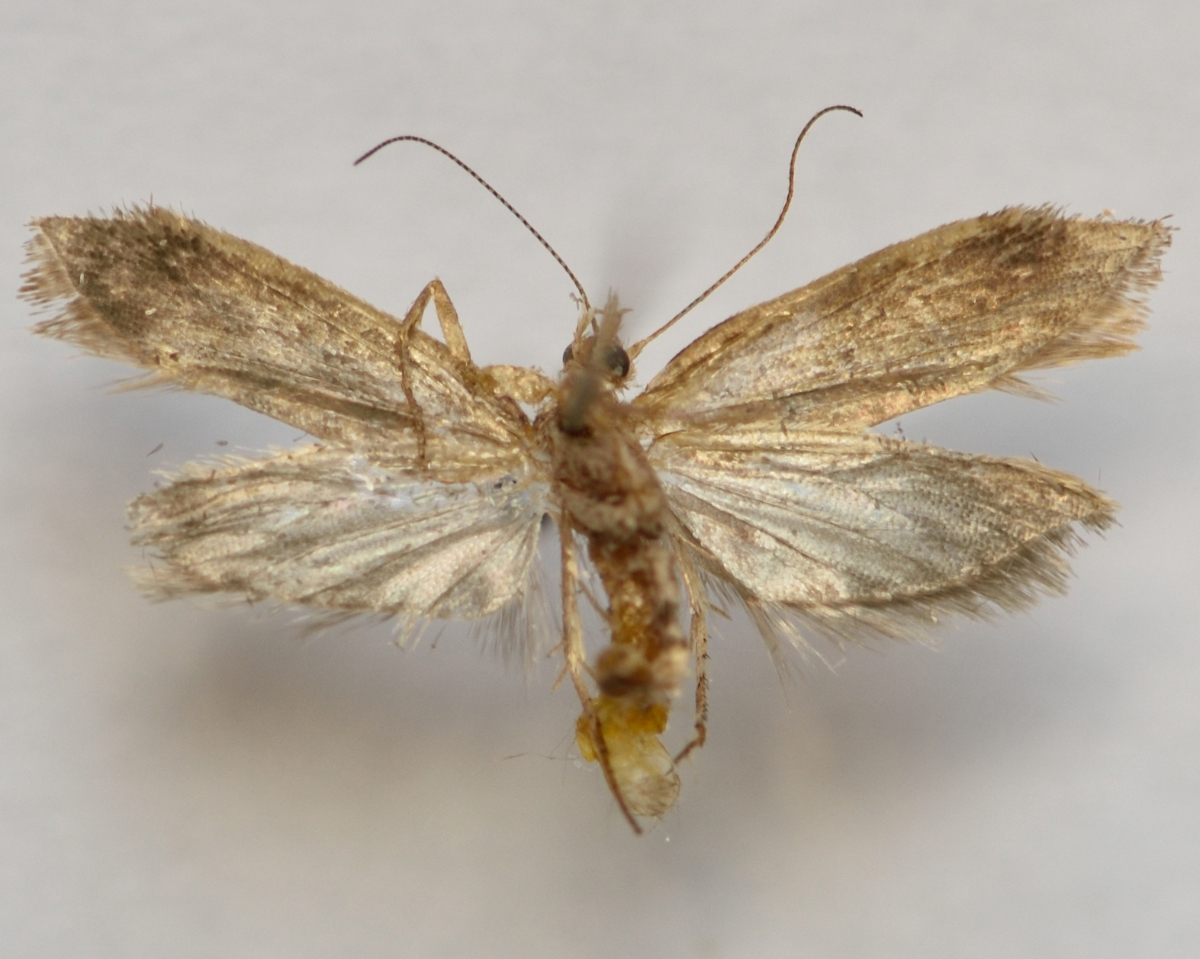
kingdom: Animalia
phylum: Arthropoda
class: Insecta
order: Lepidoptera
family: Plutellidae
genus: Ypsolophus
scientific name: Ypsolophus sylvella
